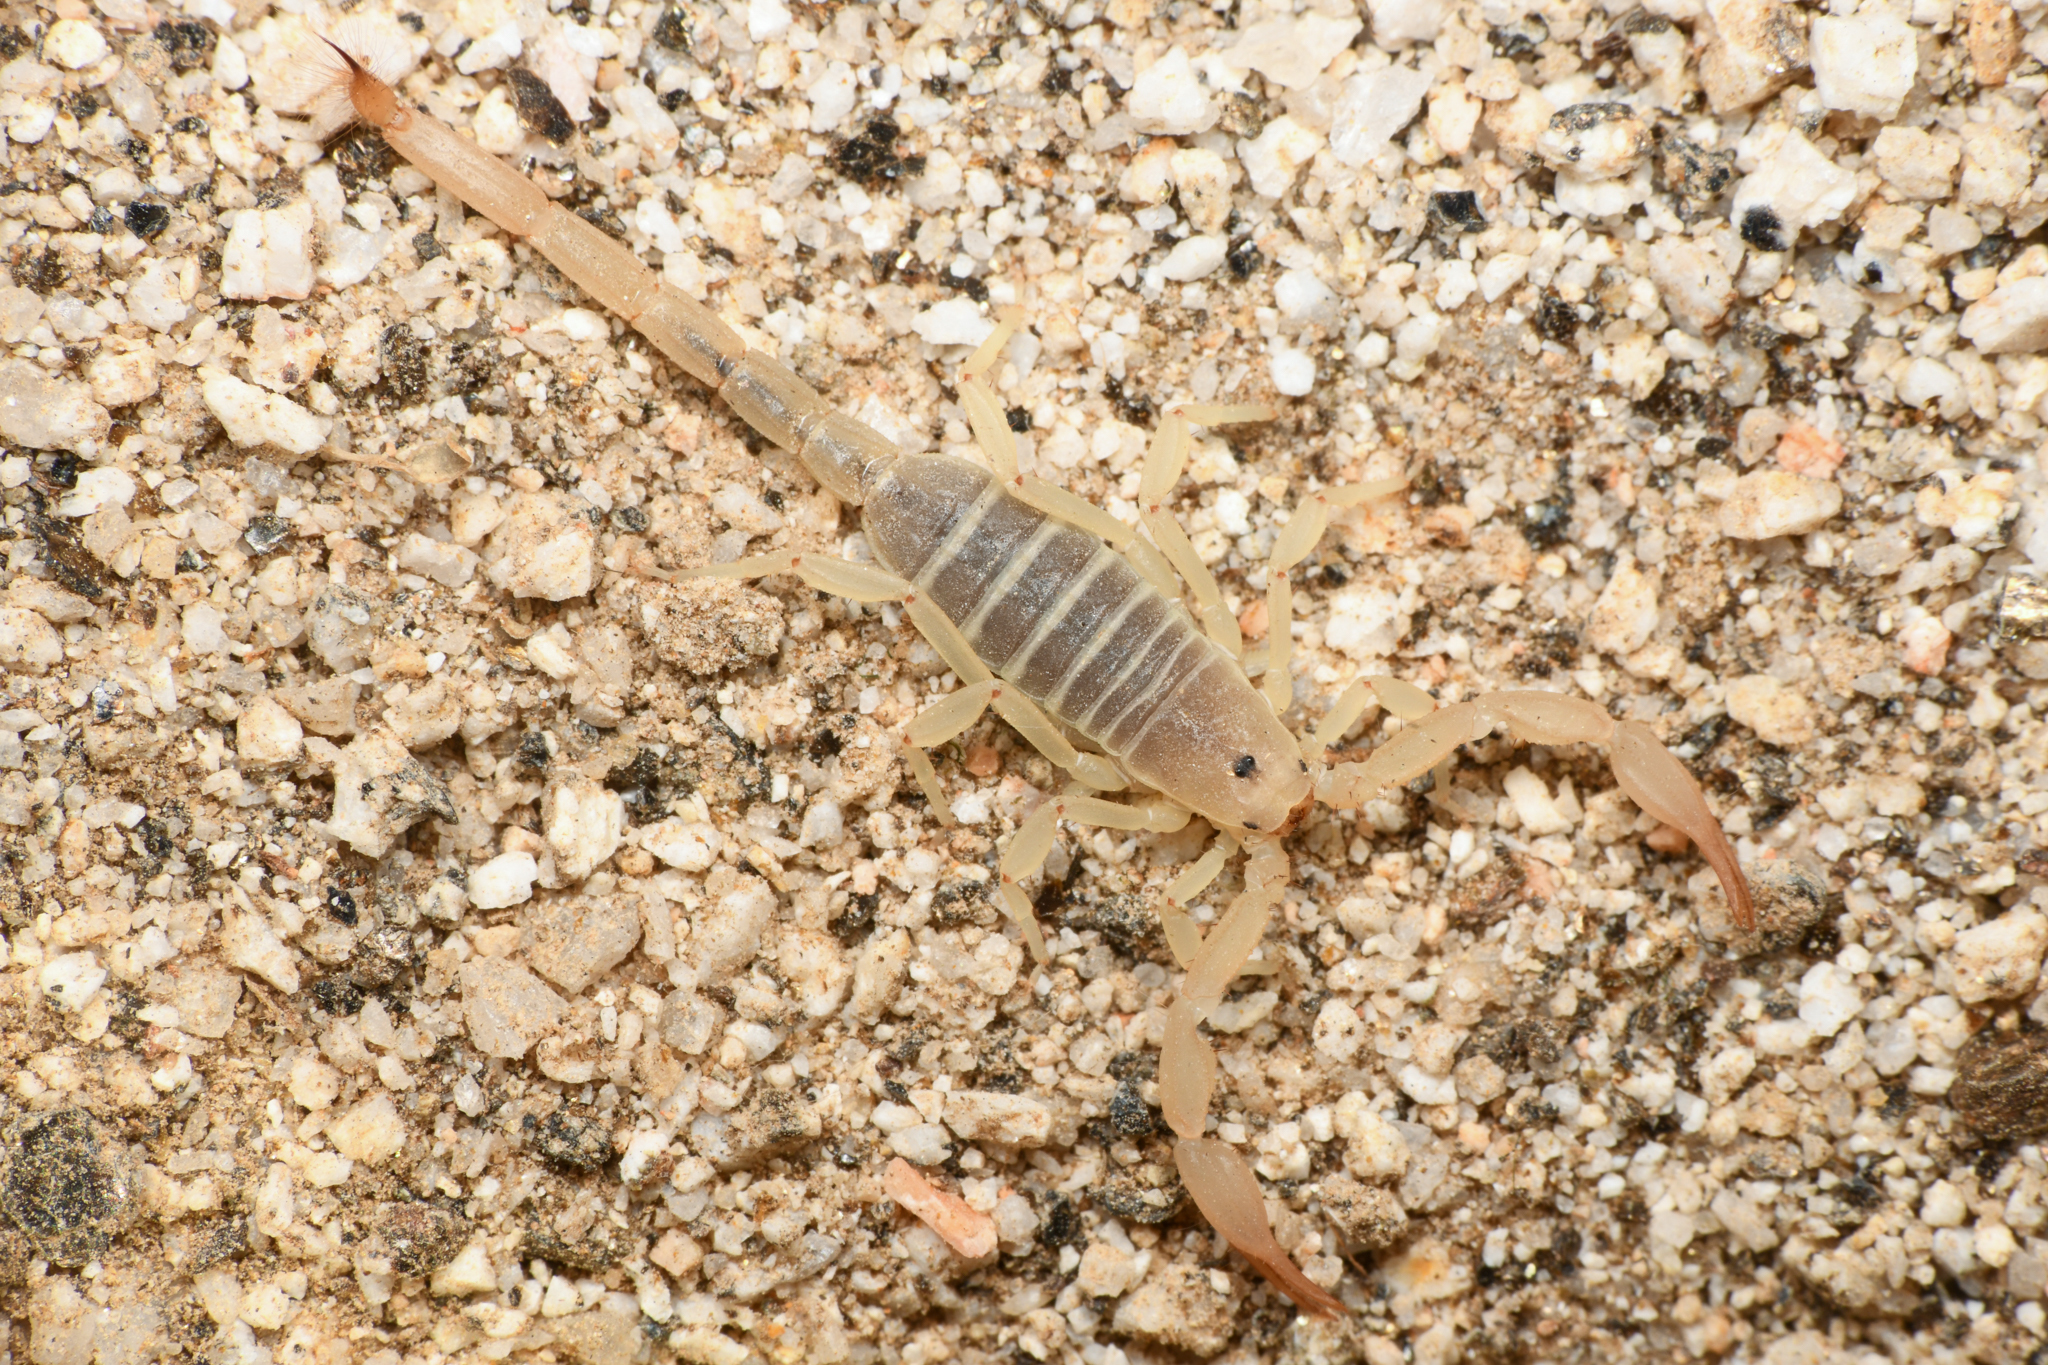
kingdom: Animalia
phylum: Arthropoda
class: Arachnida
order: Scorpiones
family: Vaejovidae
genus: Kochius
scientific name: Kochius hirsuticauda
